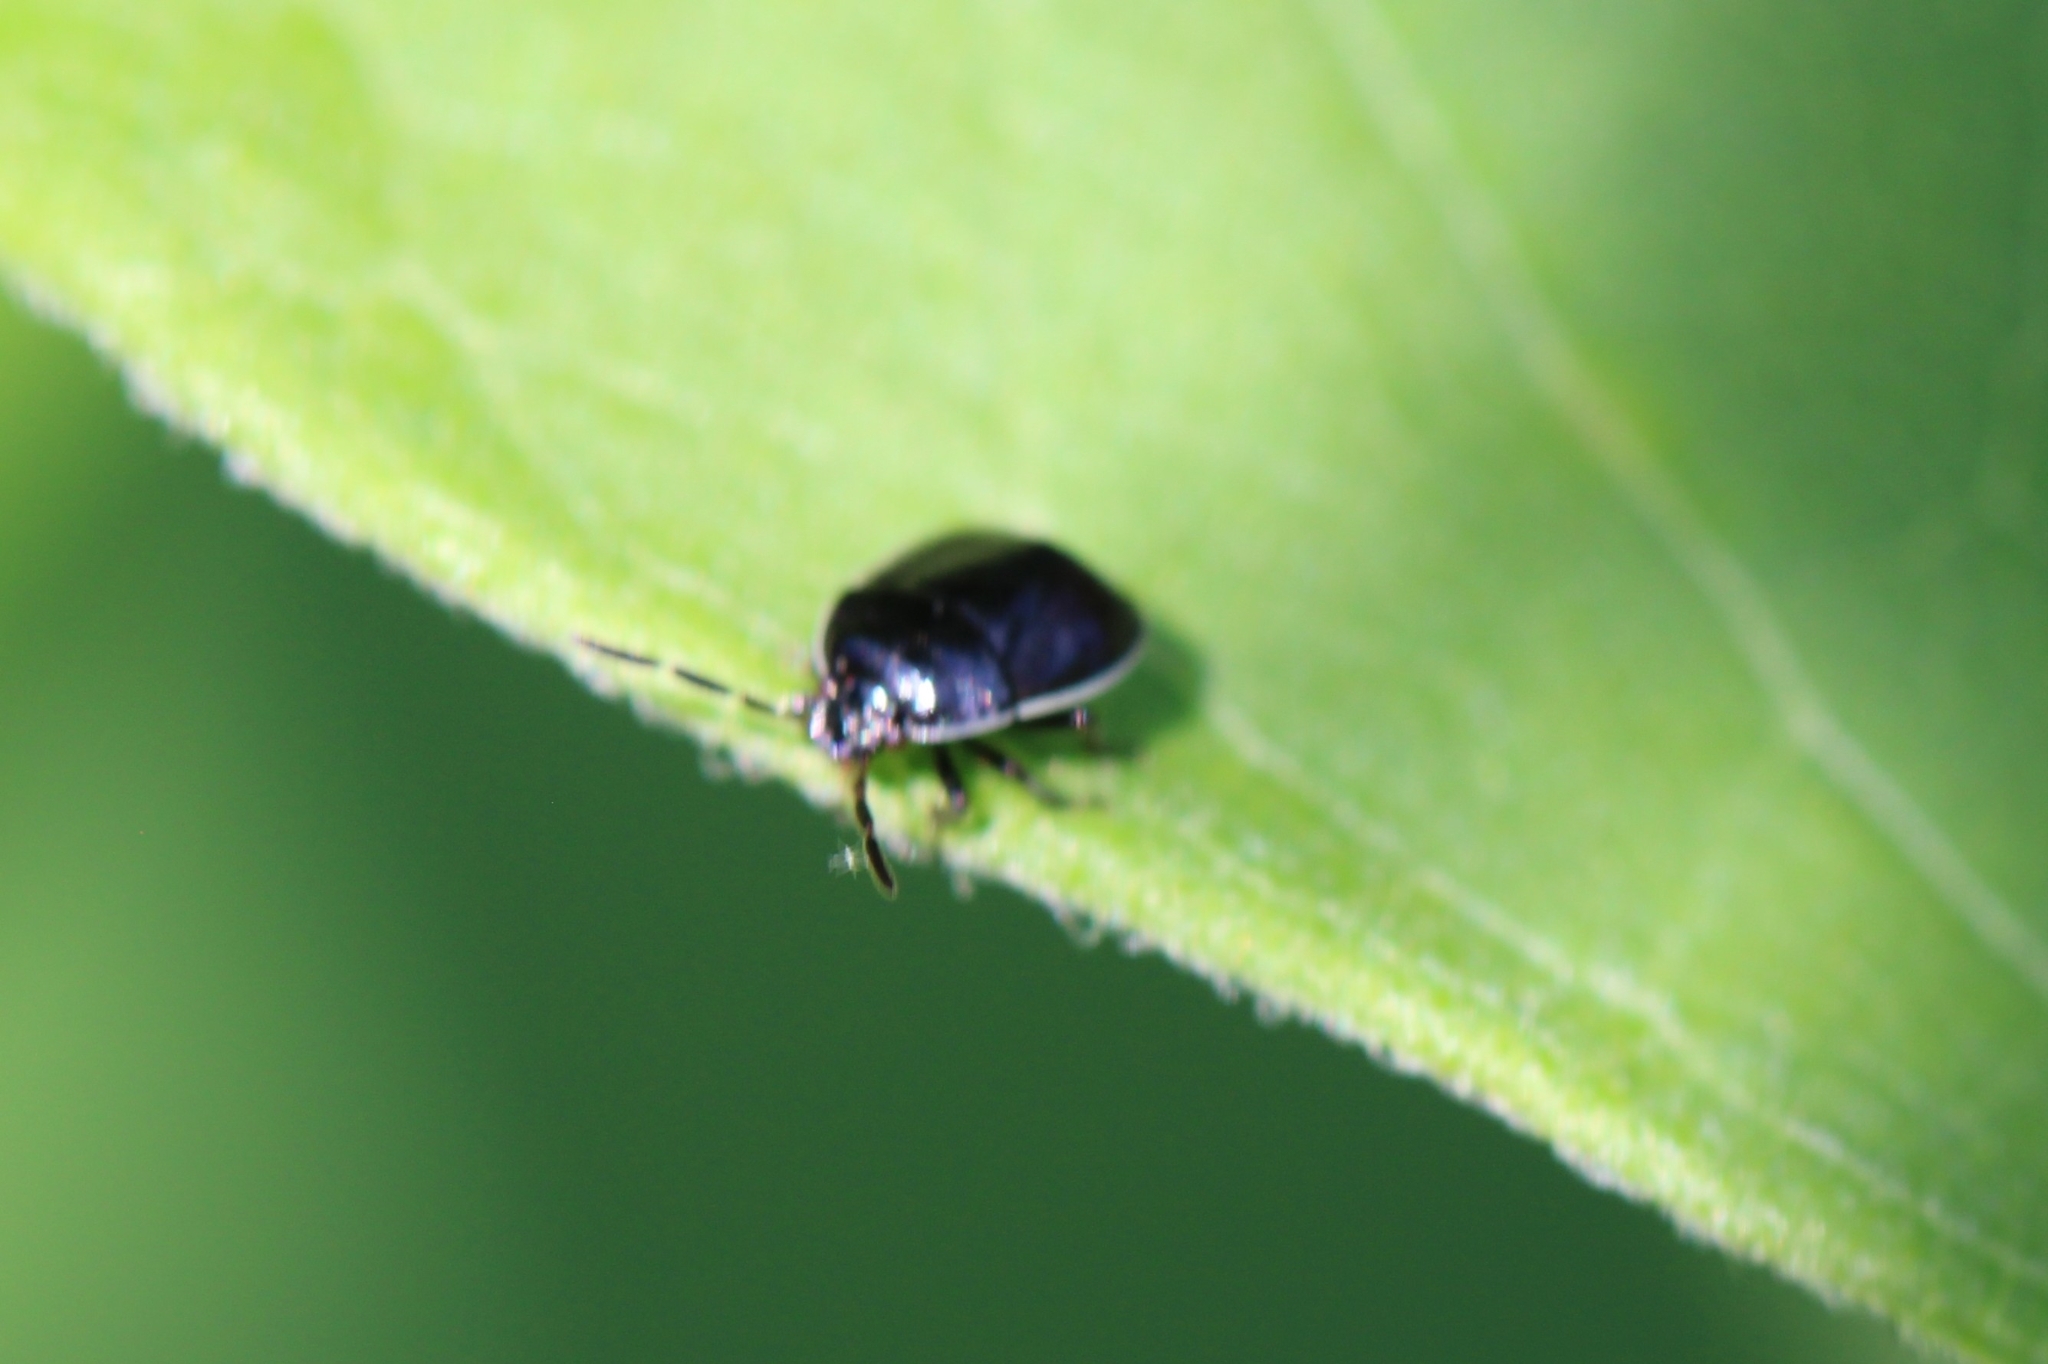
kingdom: Animalia
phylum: Arthropoda
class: Insecta
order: Hemiptera
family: Cydnidae
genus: Sehirus
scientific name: Sehirus cinctus
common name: White-margined burrower bug
